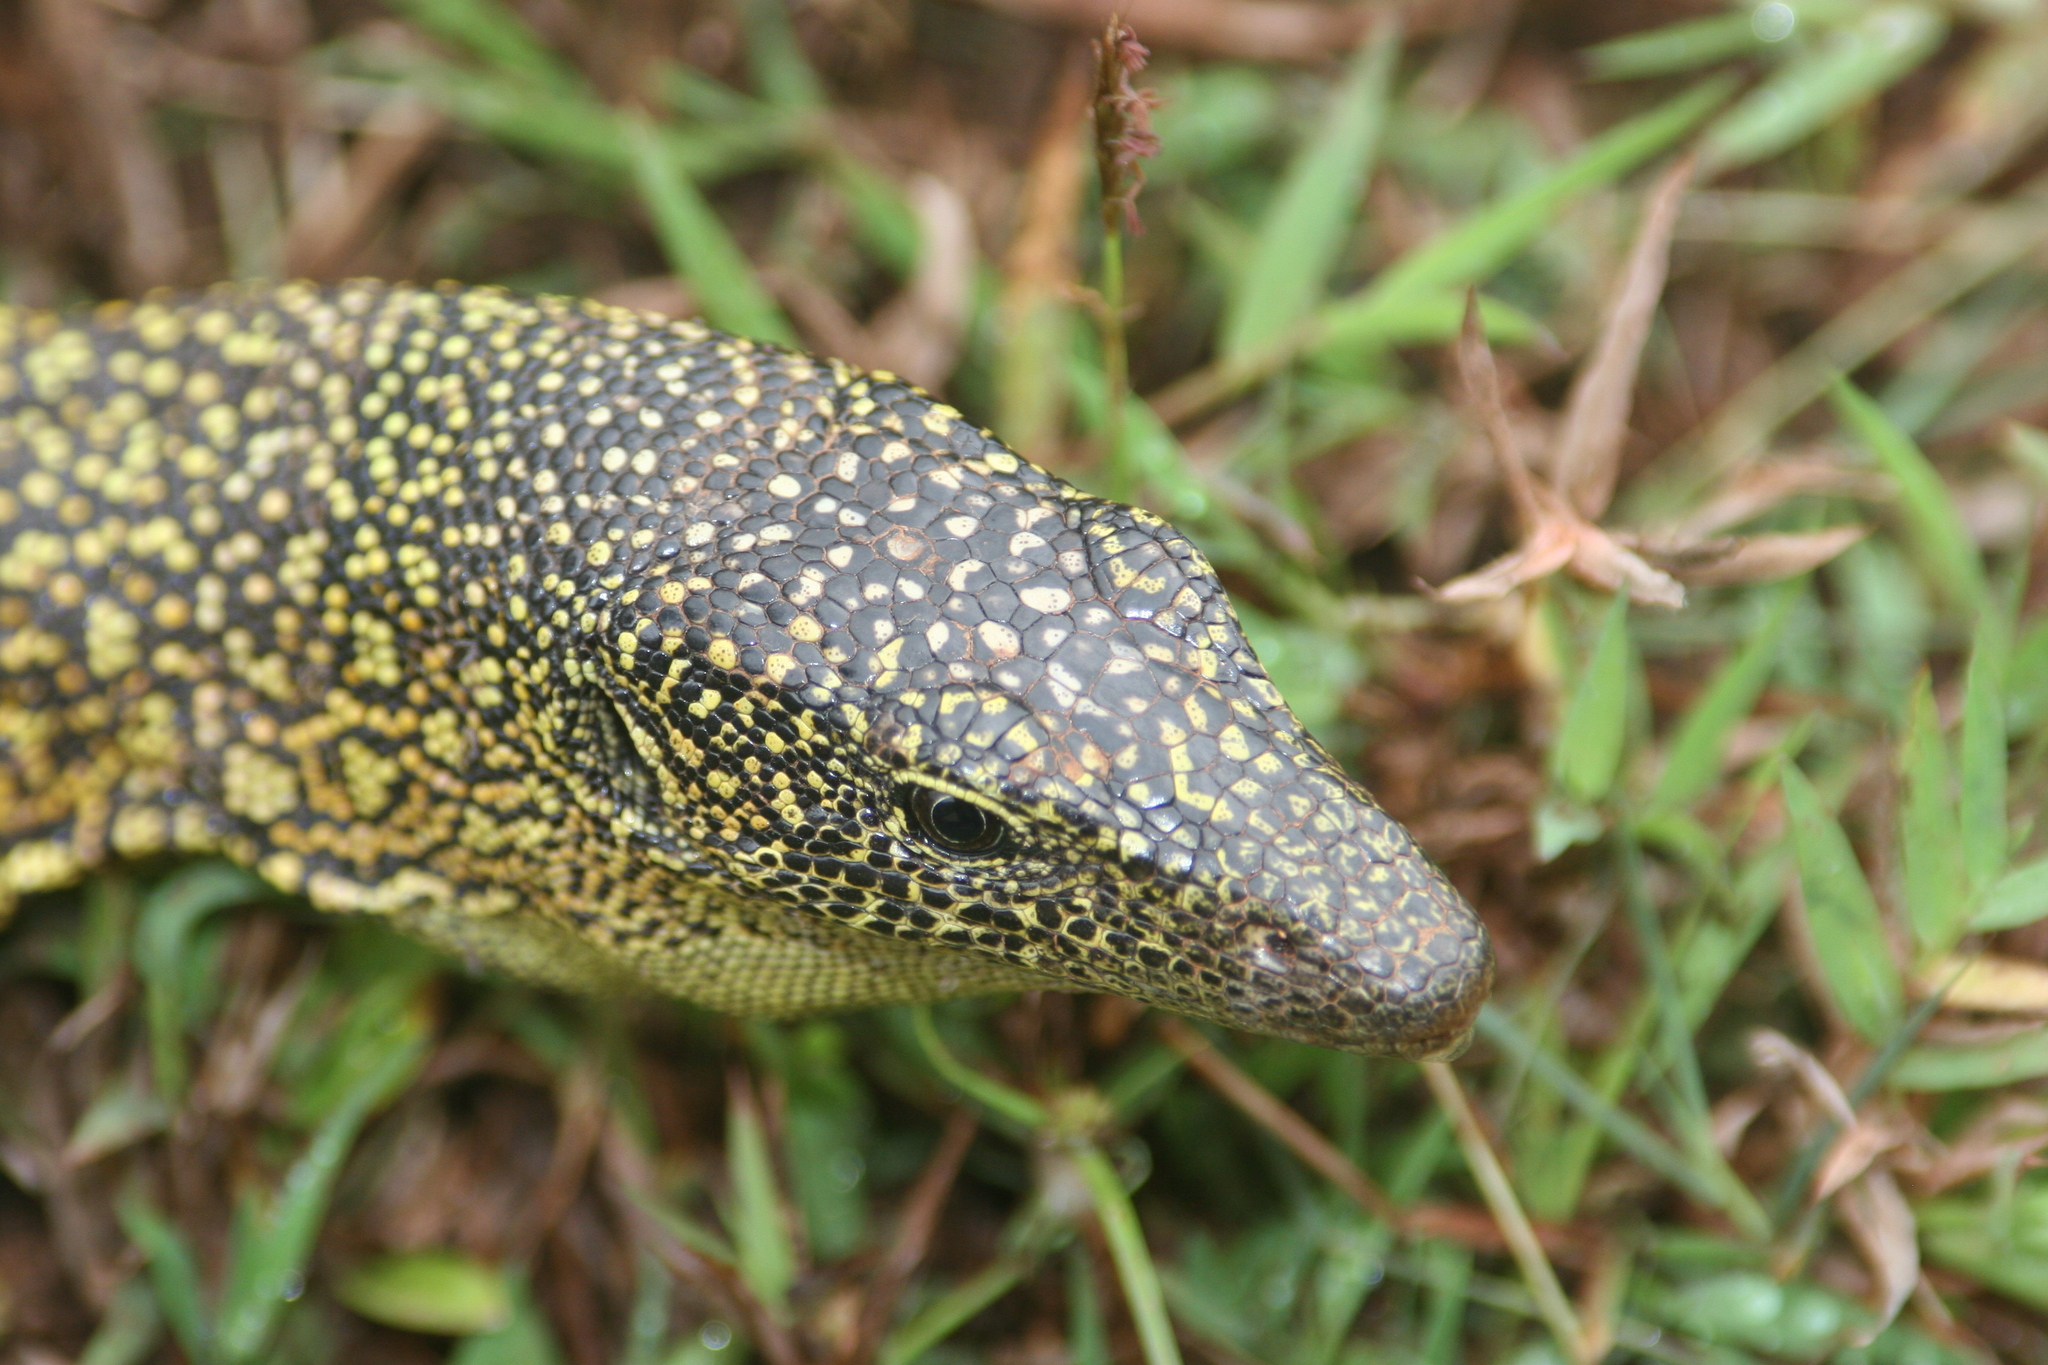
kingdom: Animalia
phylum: Chordata
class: Squamata
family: Varanidae
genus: Varanus
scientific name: Varanus tsukamotoi
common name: Mariana monitor
